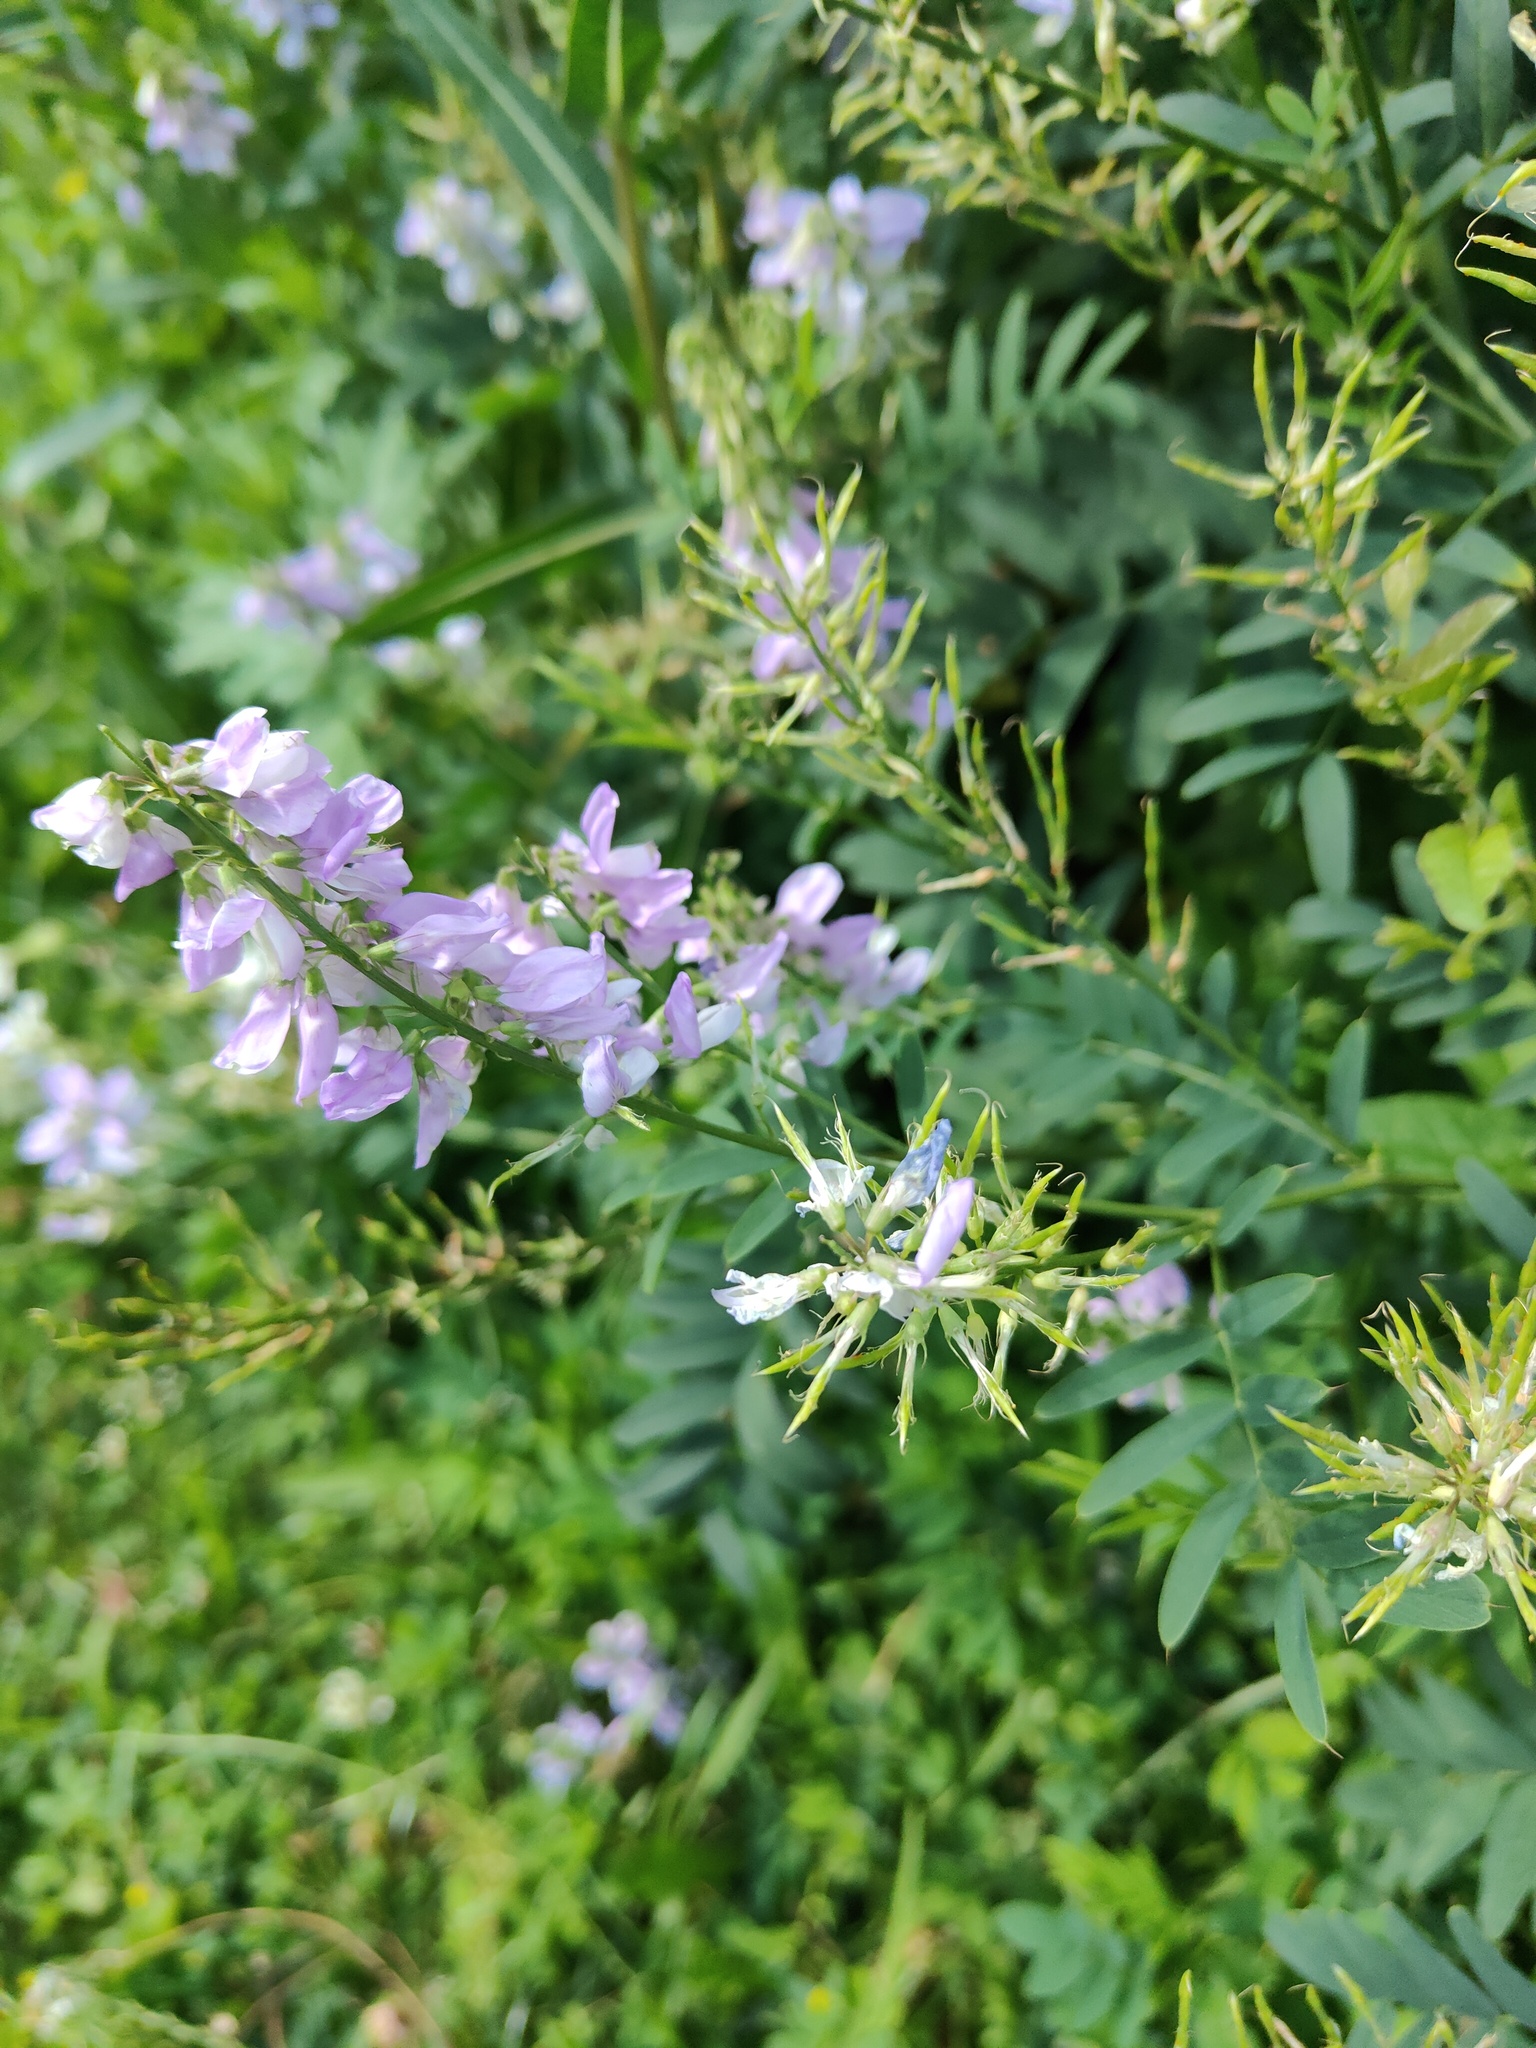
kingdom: Plantae
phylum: Tracheophyta
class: Magnoliopsida
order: Fabales
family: Fabaceae
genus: Galega
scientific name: Galega officinalis
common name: Goat's-rue
